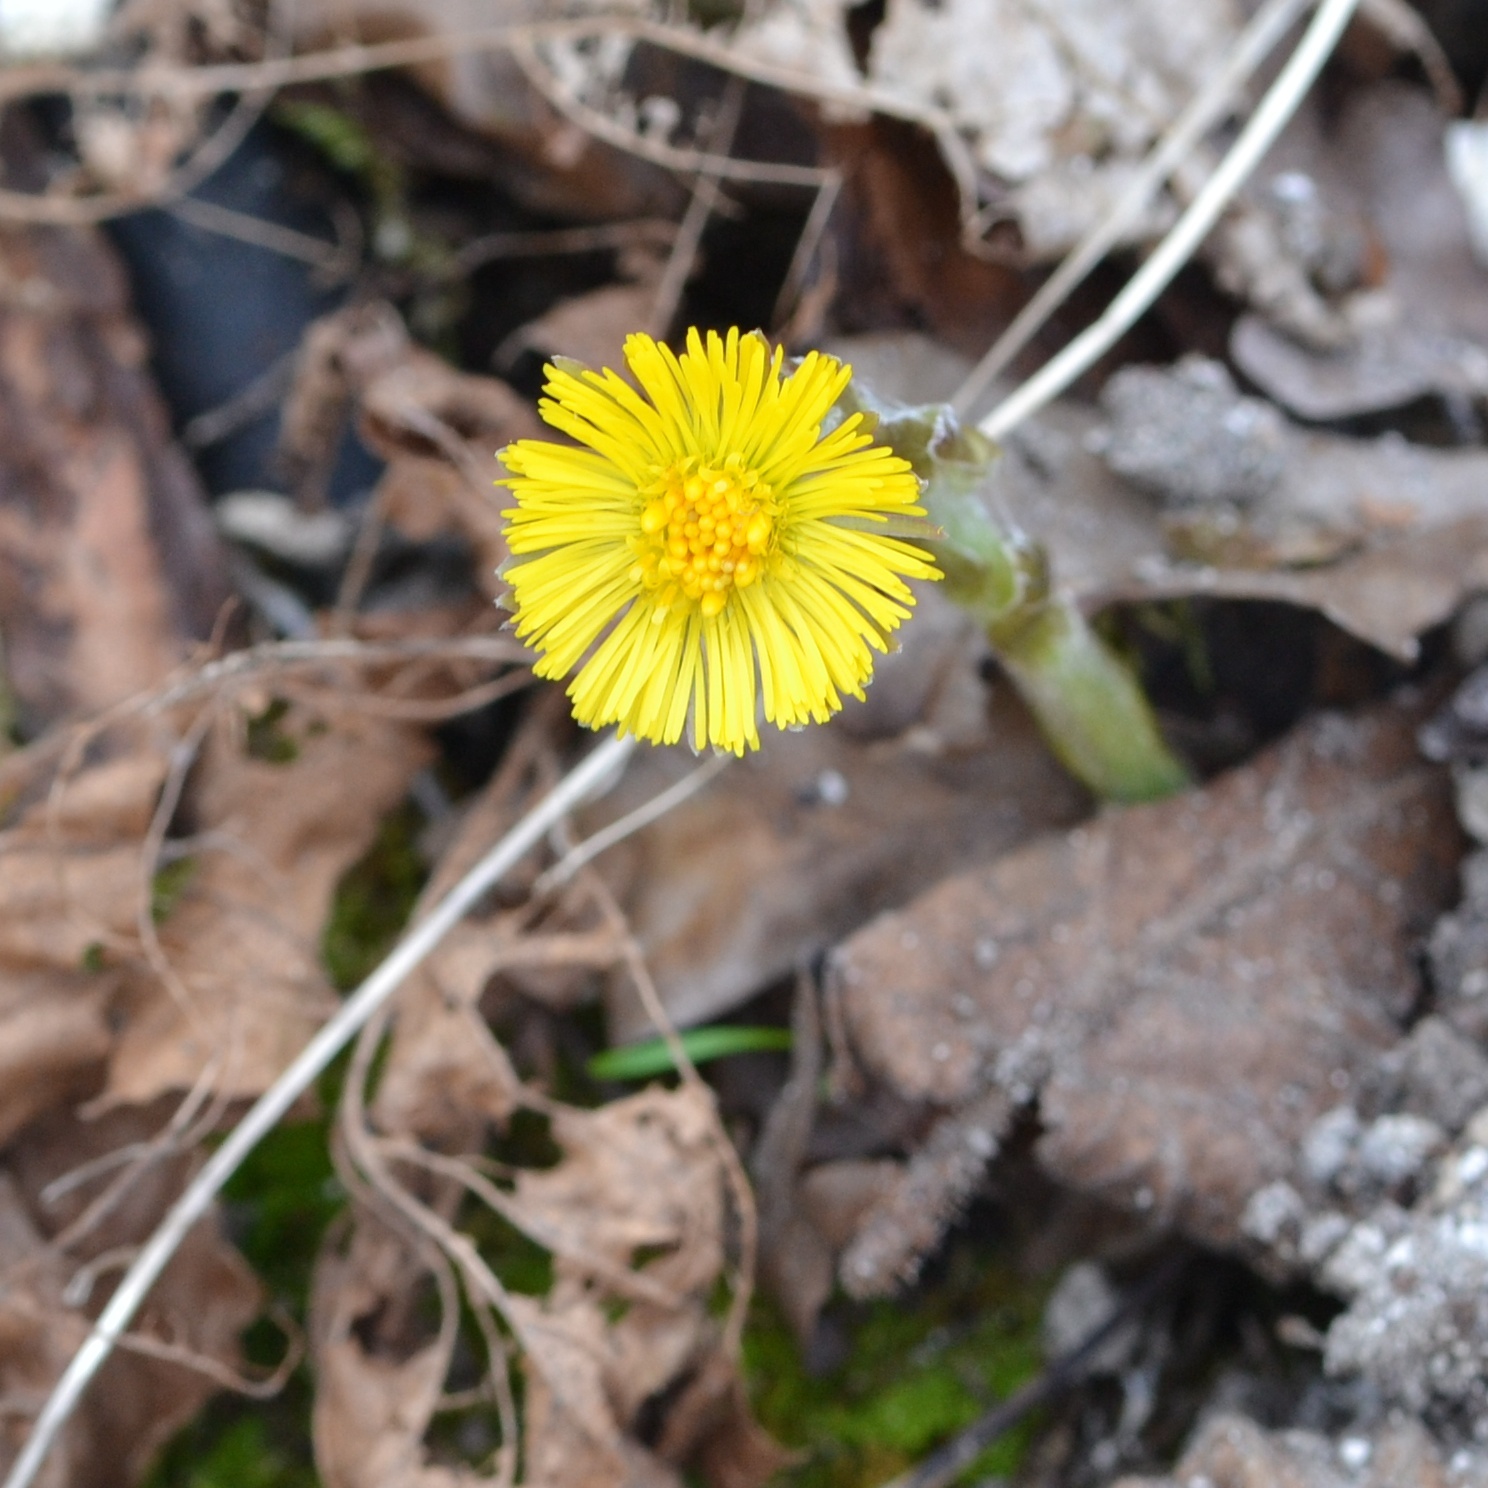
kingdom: Plantae
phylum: Tracheophyta
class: Magnoliopsida
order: Asterales
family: Asteraceae
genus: Tussilago
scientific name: Tussilago farfara
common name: Coltsfoot
